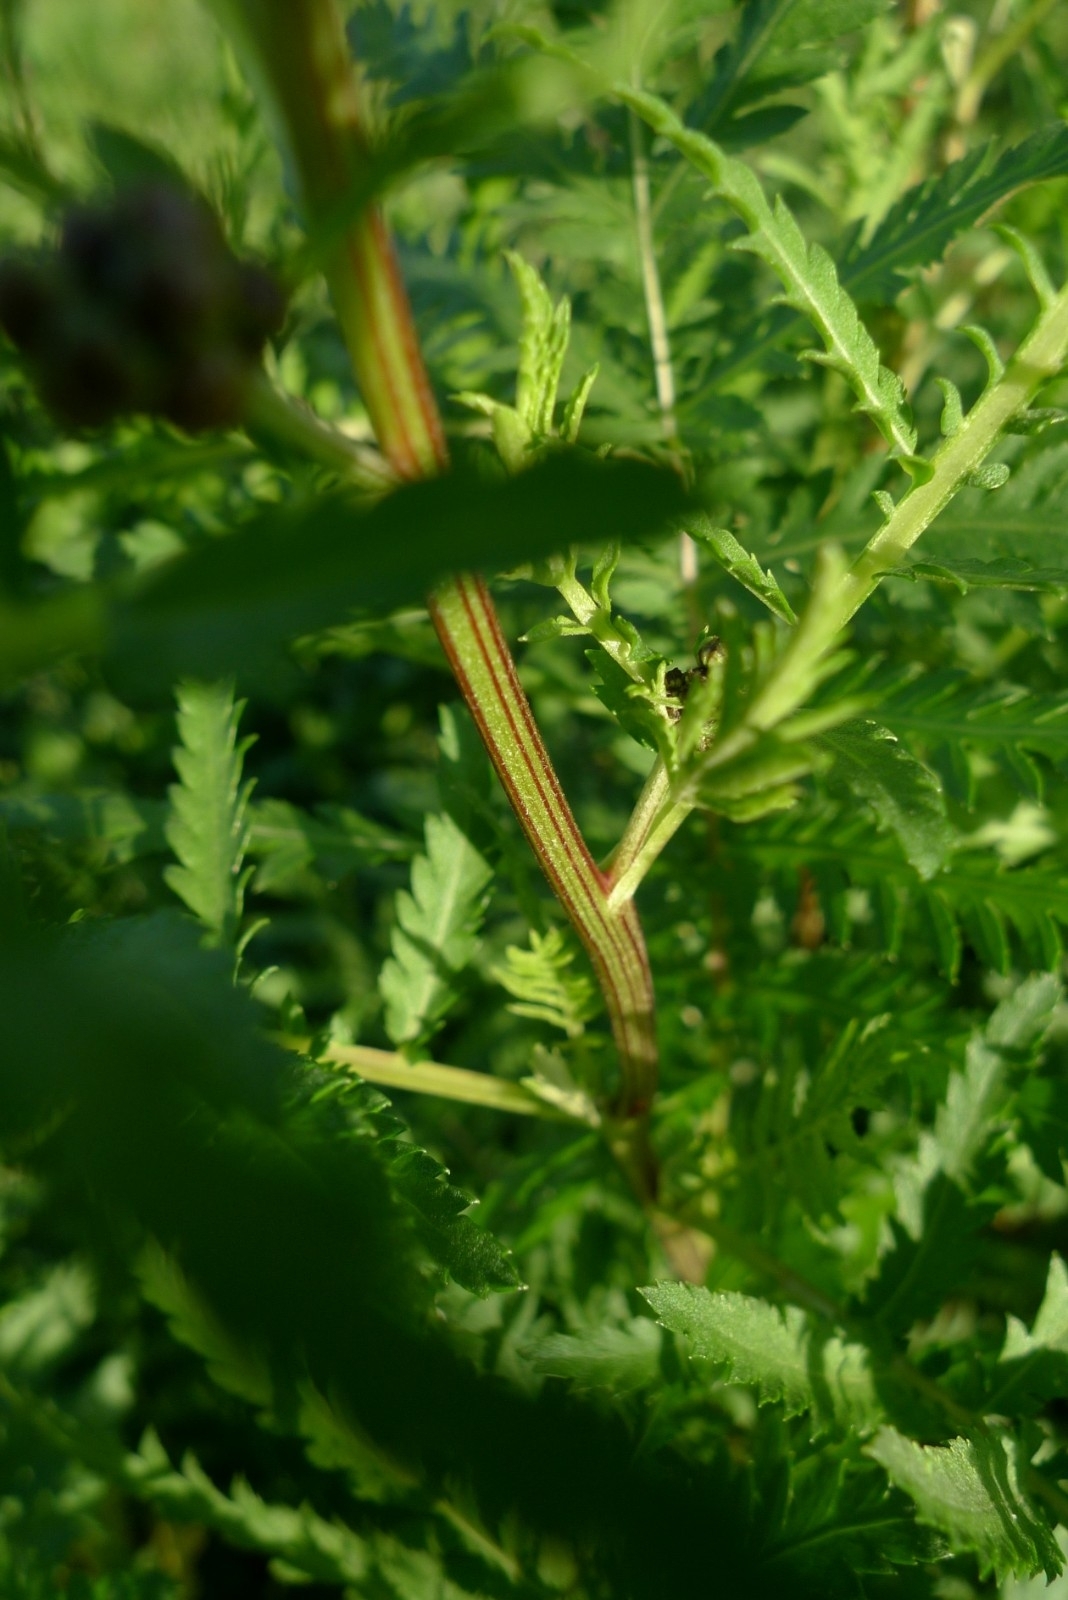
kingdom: Plantae
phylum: Tracheophyta
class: Magnoliopsida
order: Asterales
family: Asteraceae
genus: Tanacetum
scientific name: Tanacetum vulgare
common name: Common tansy
